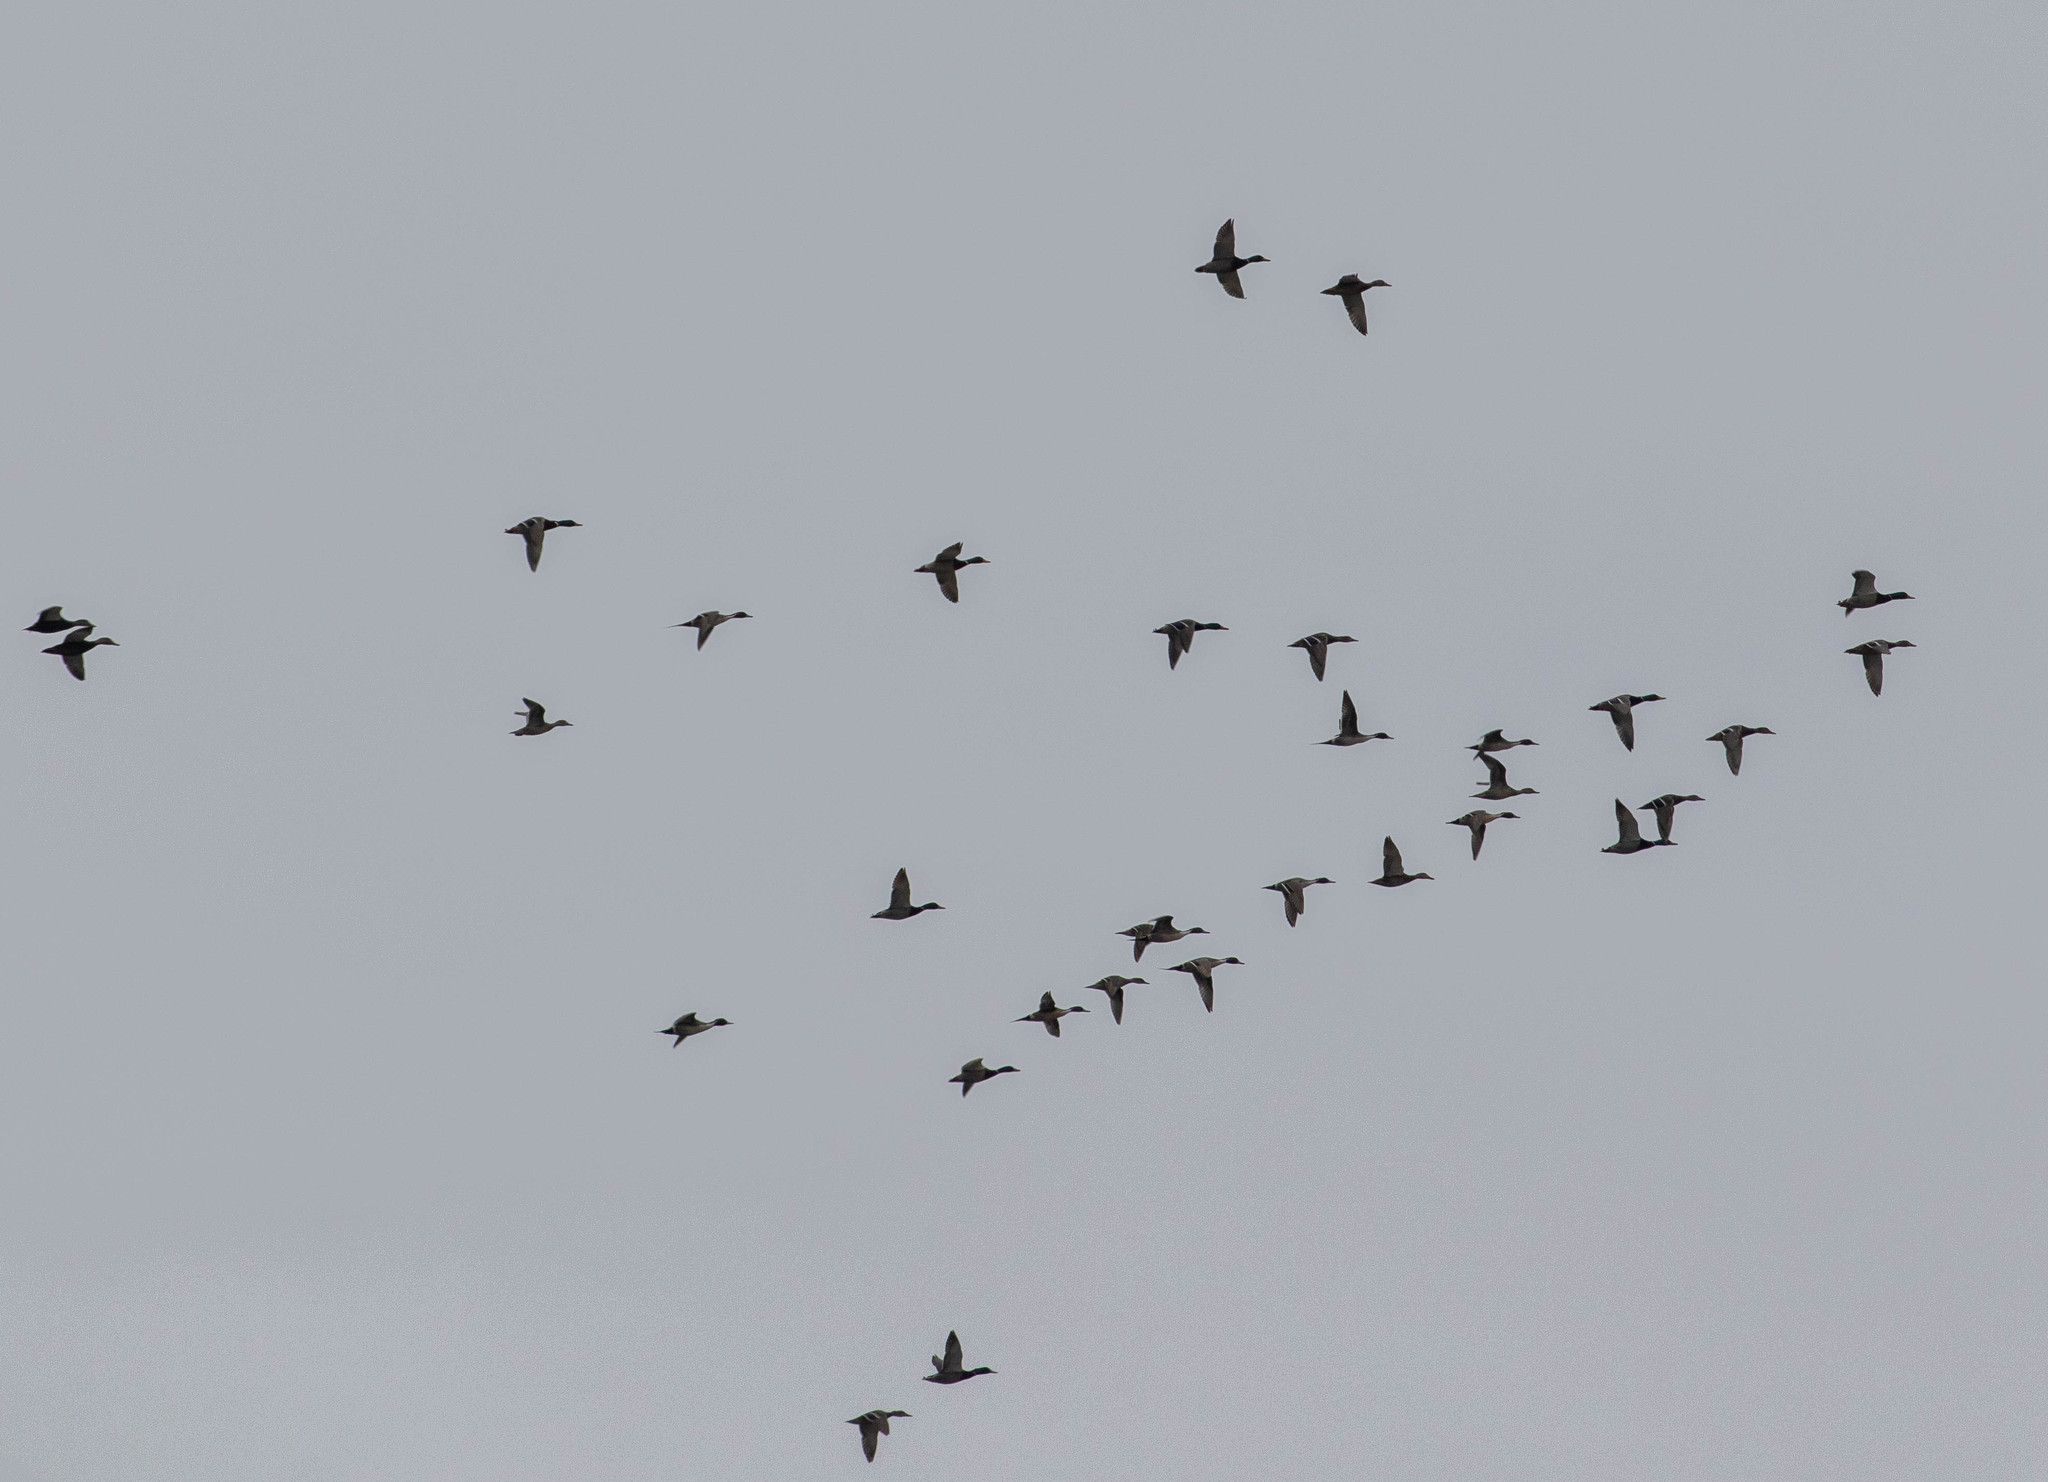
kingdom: Animalia
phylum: Chordata
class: Aves
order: Anseriformes
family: Anatidae
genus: Anas
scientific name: Anas platyrhynchos
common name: Mallard
